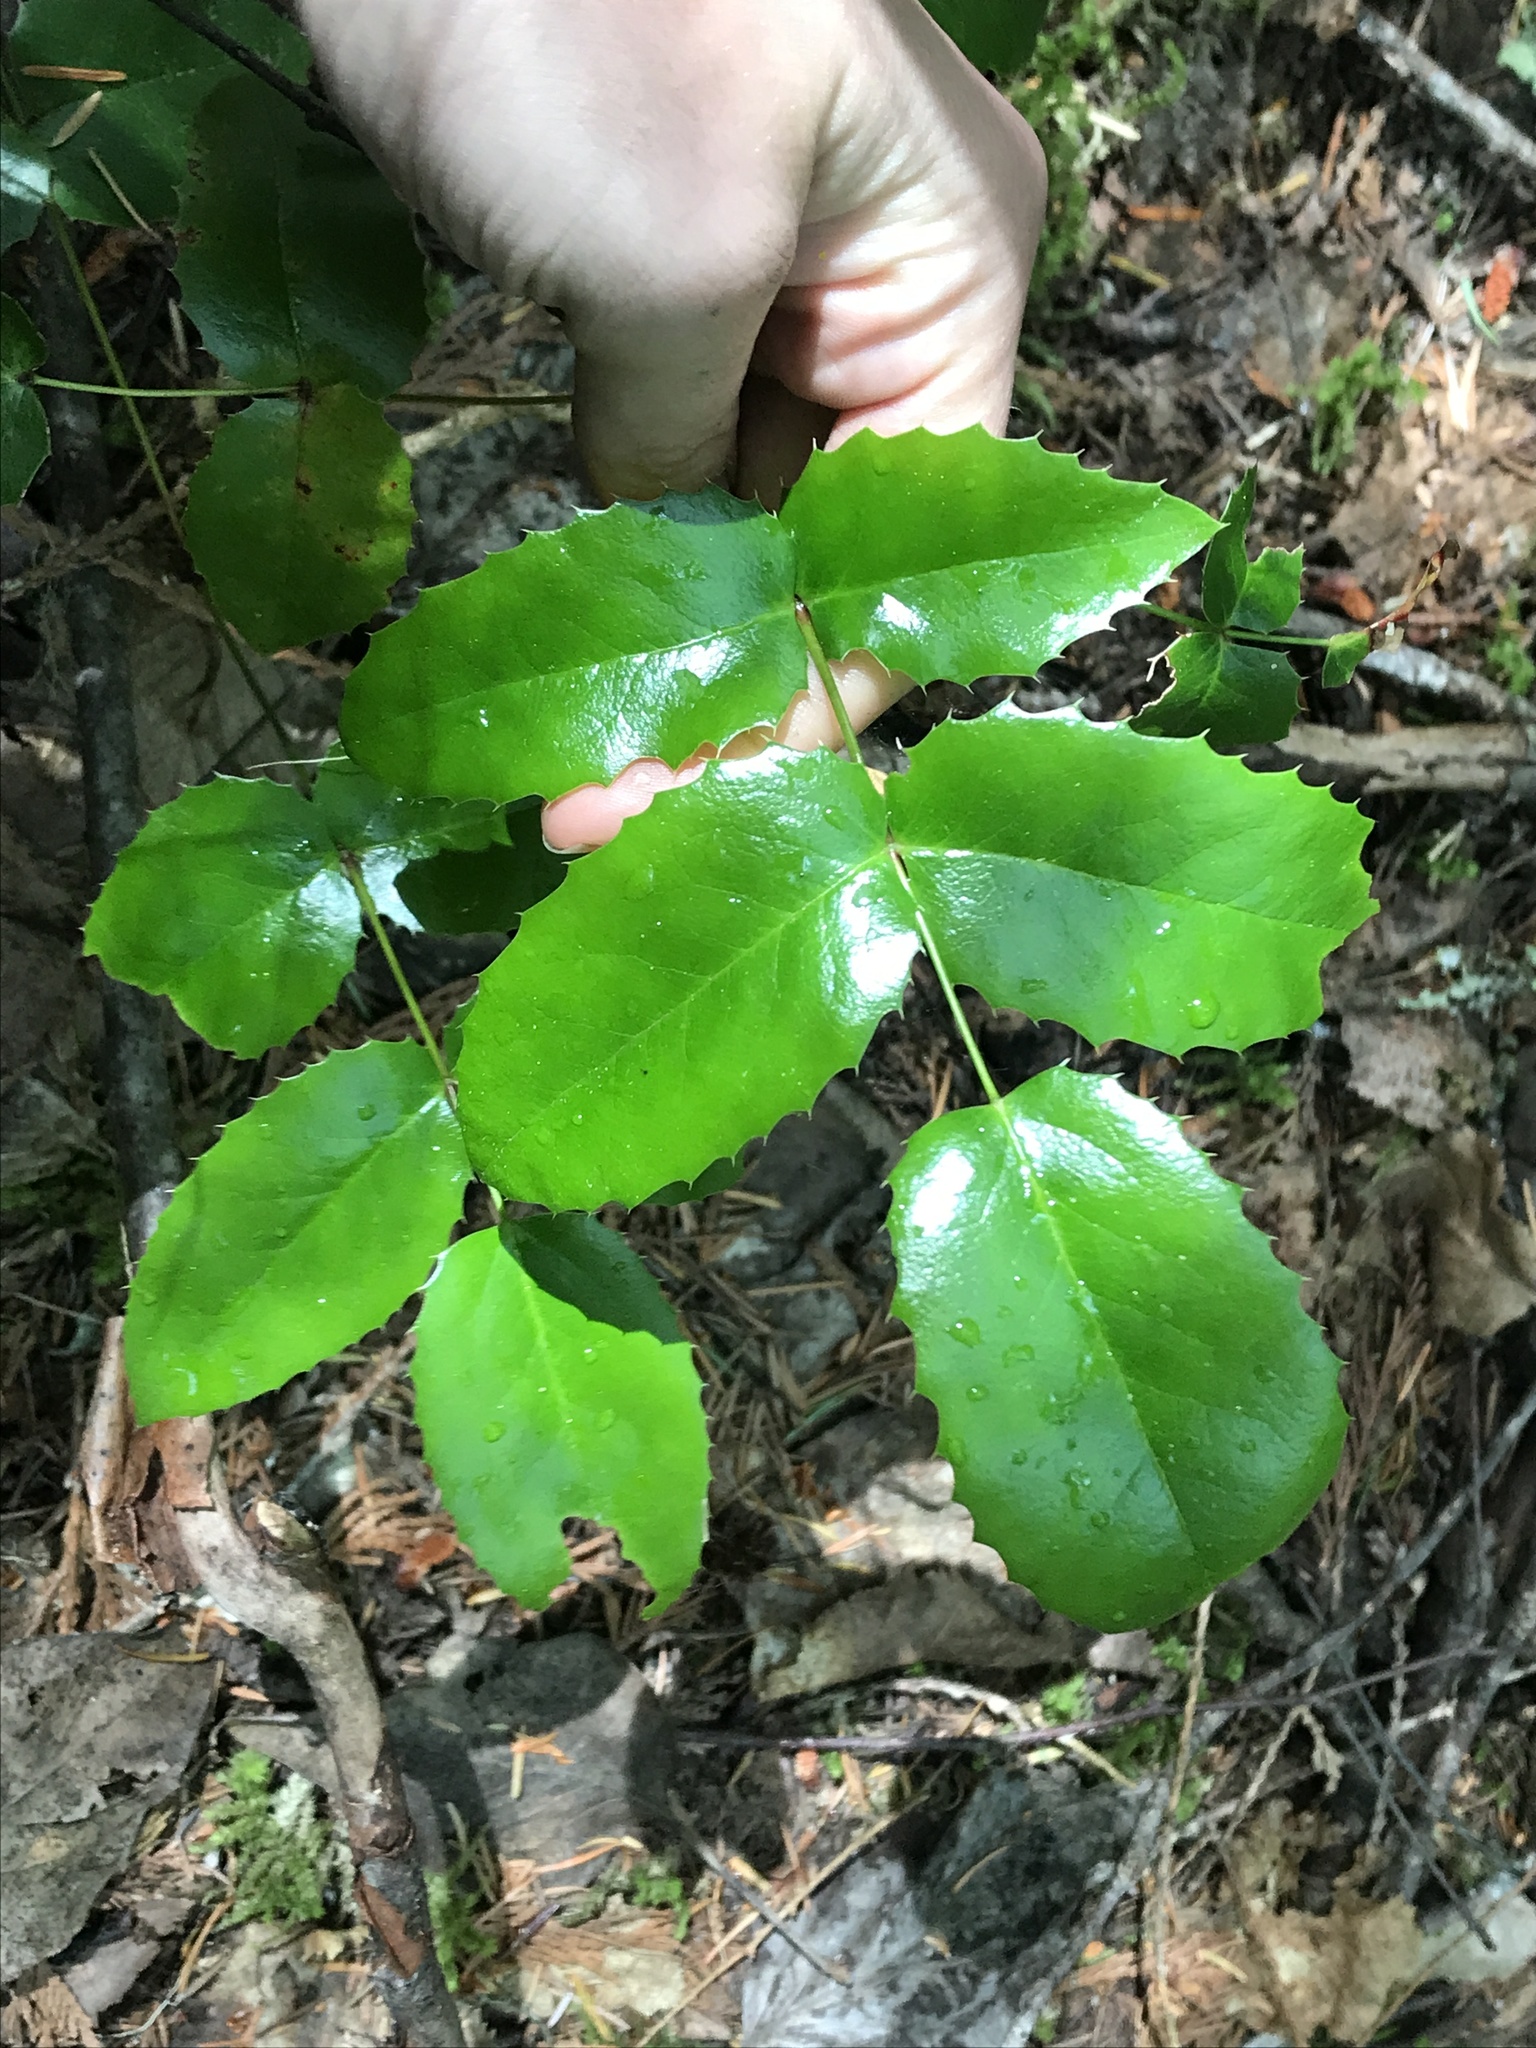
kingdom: Plantae
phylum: Tracheophyta
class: Magnoliopsida
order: Ranunculales
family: Berberidaceae
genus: Mahonia
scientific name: Mahonia aquifolium
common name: Oregon-grape
